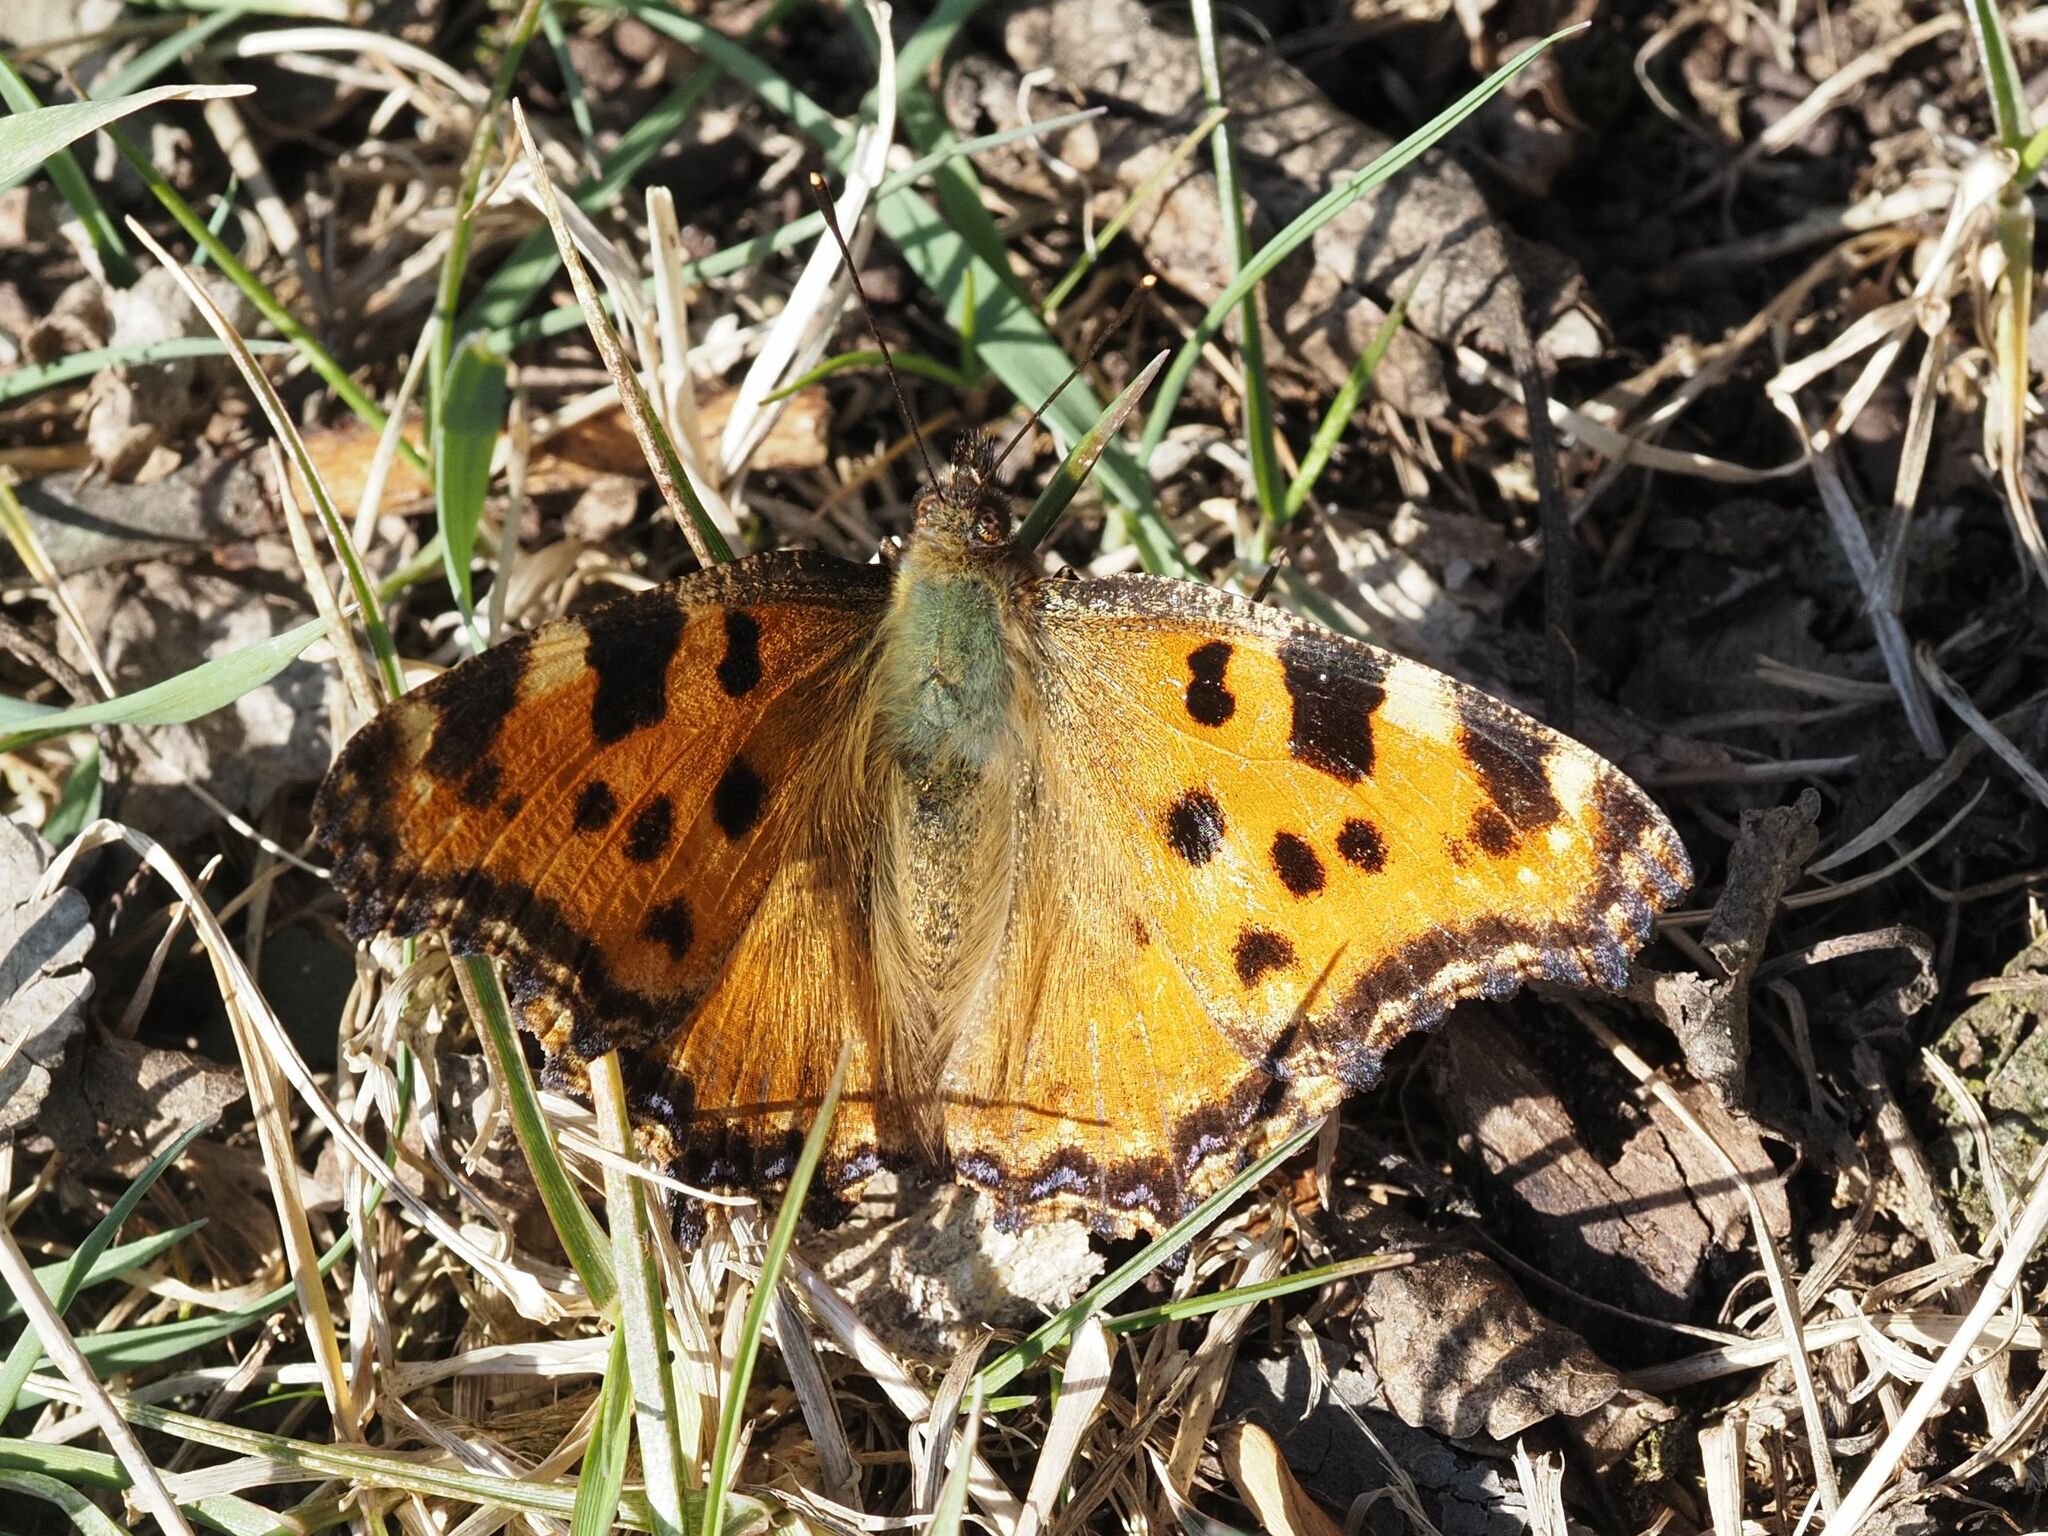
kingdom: Animalia
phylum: Arthropoda
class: Insecta
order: Lepidoptera
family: Nymphalidae
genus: Nymphalis
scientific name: Nymphalis polychloros
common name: Large tortoiseshell
